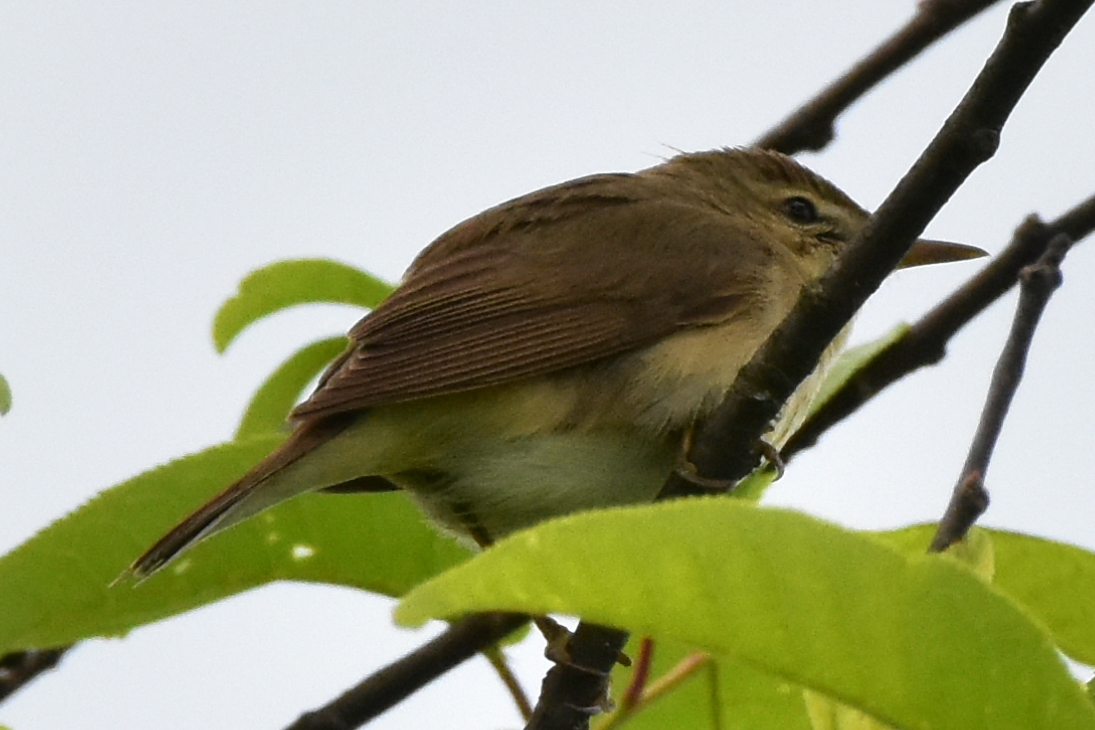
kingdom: Animalia
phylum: Chordata
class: Aves
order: Passeriformes
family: Acrocephalidae
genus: Acrocephalus
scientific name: Acrocephalus dumetorum
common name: Blyth's reed warbler
